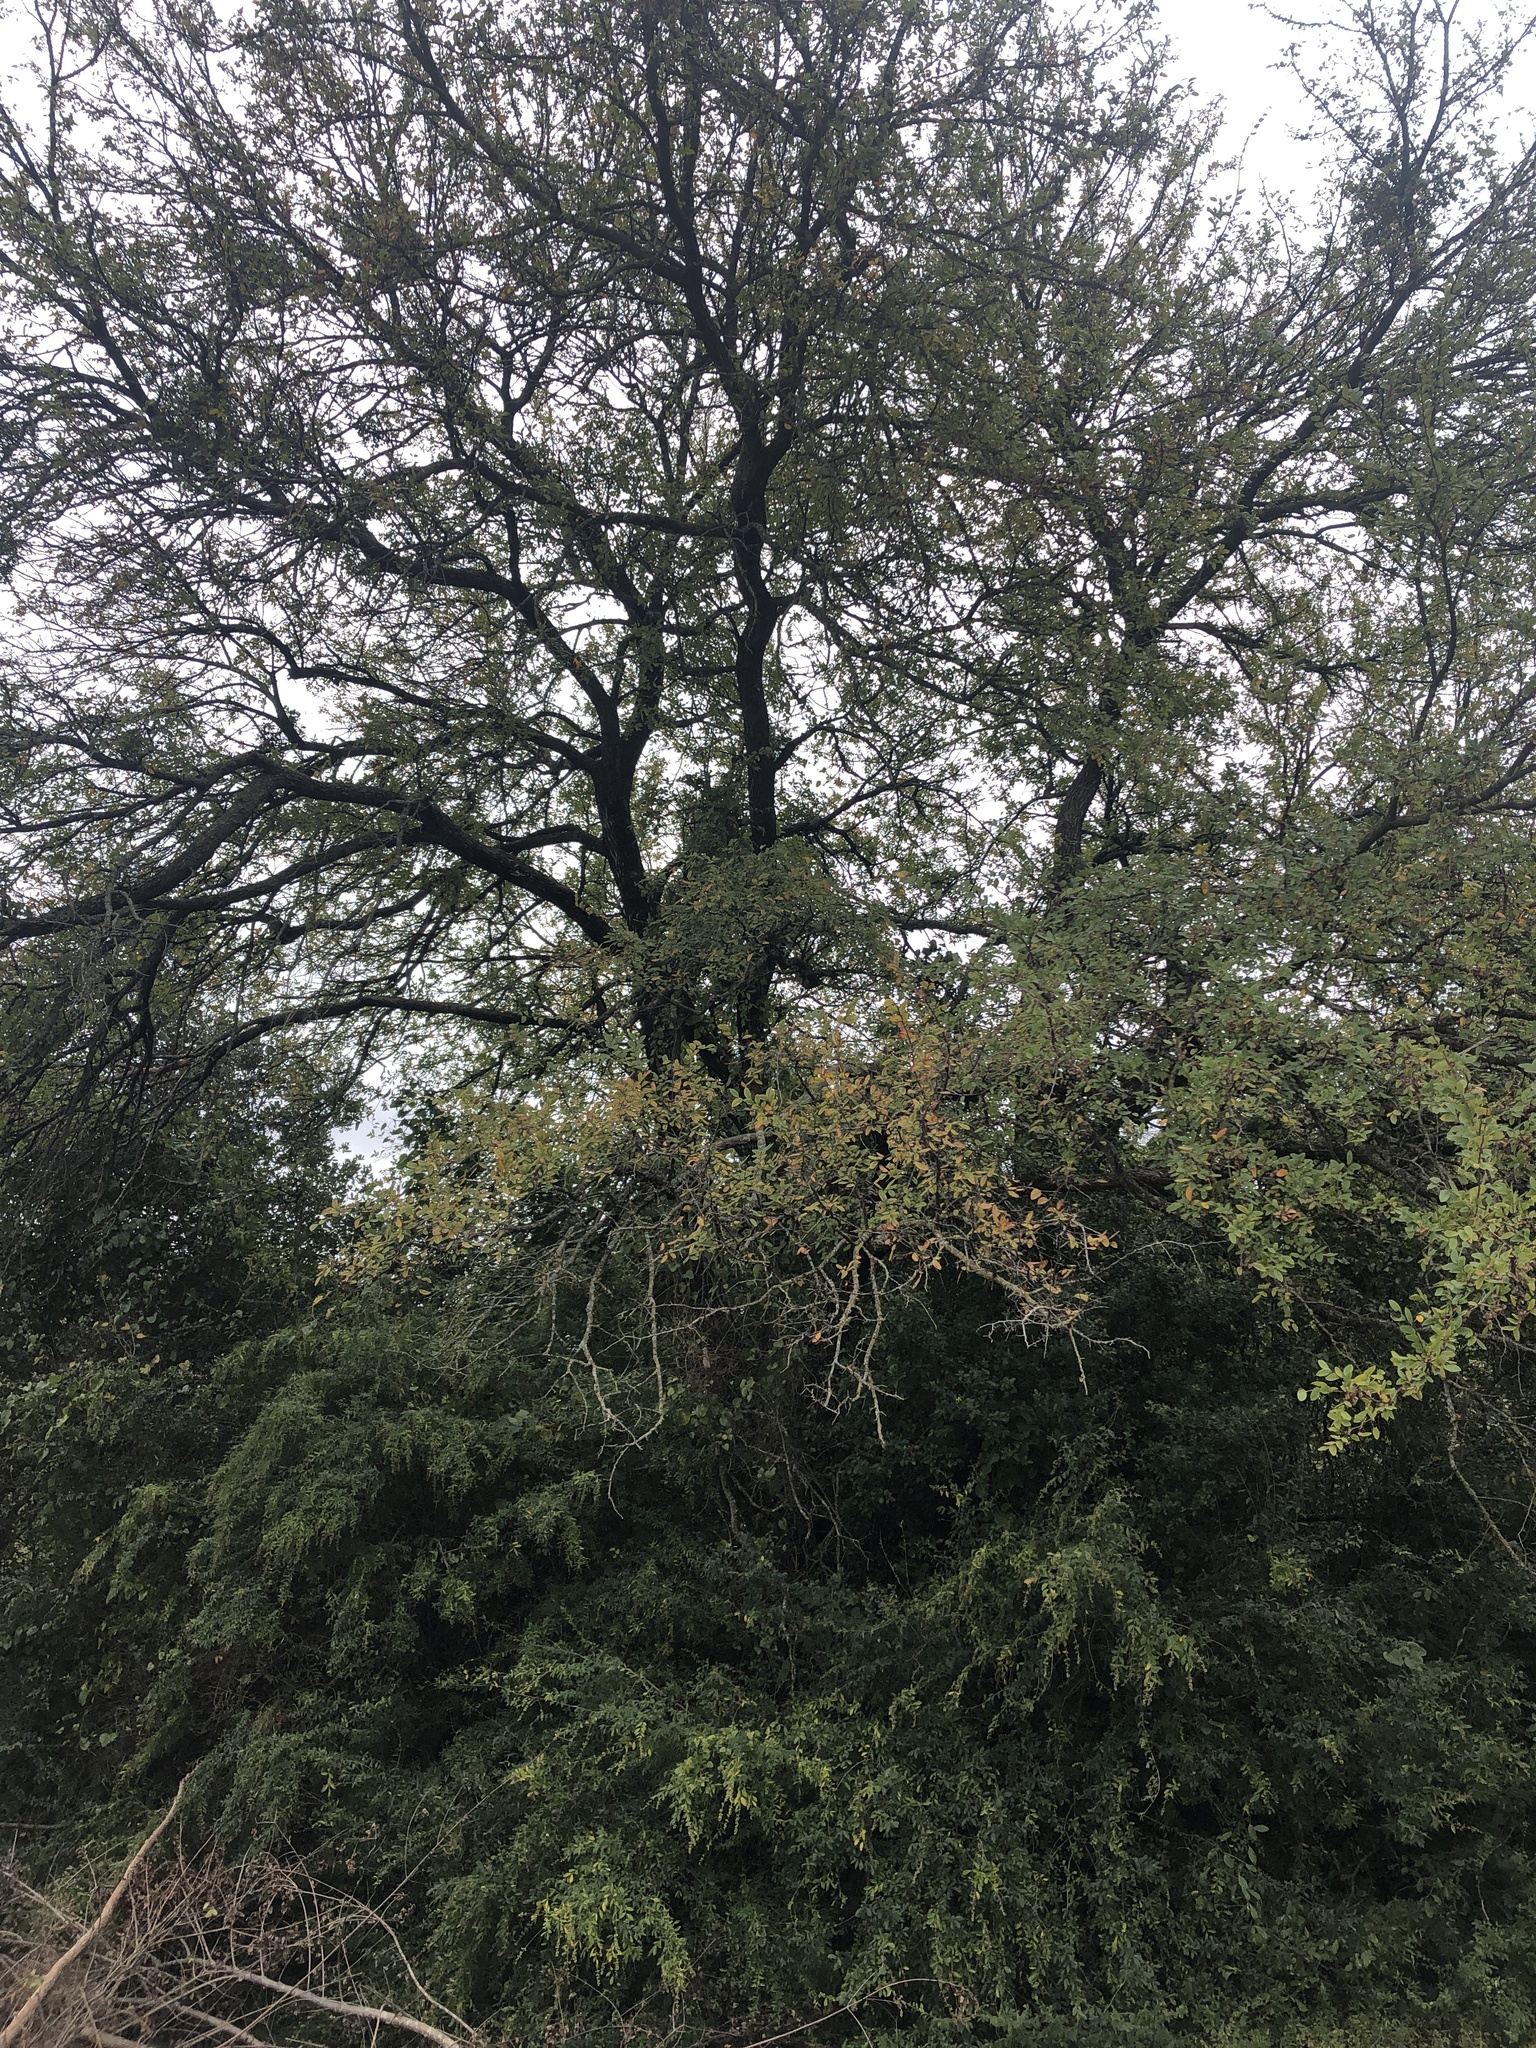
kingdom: Plantae
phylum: Tracheophyta
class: Magnoliopsida
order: Rosales
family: Ulmaceae
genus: Ulmus
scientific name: Ulmus crassifolia
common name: Basket elm
